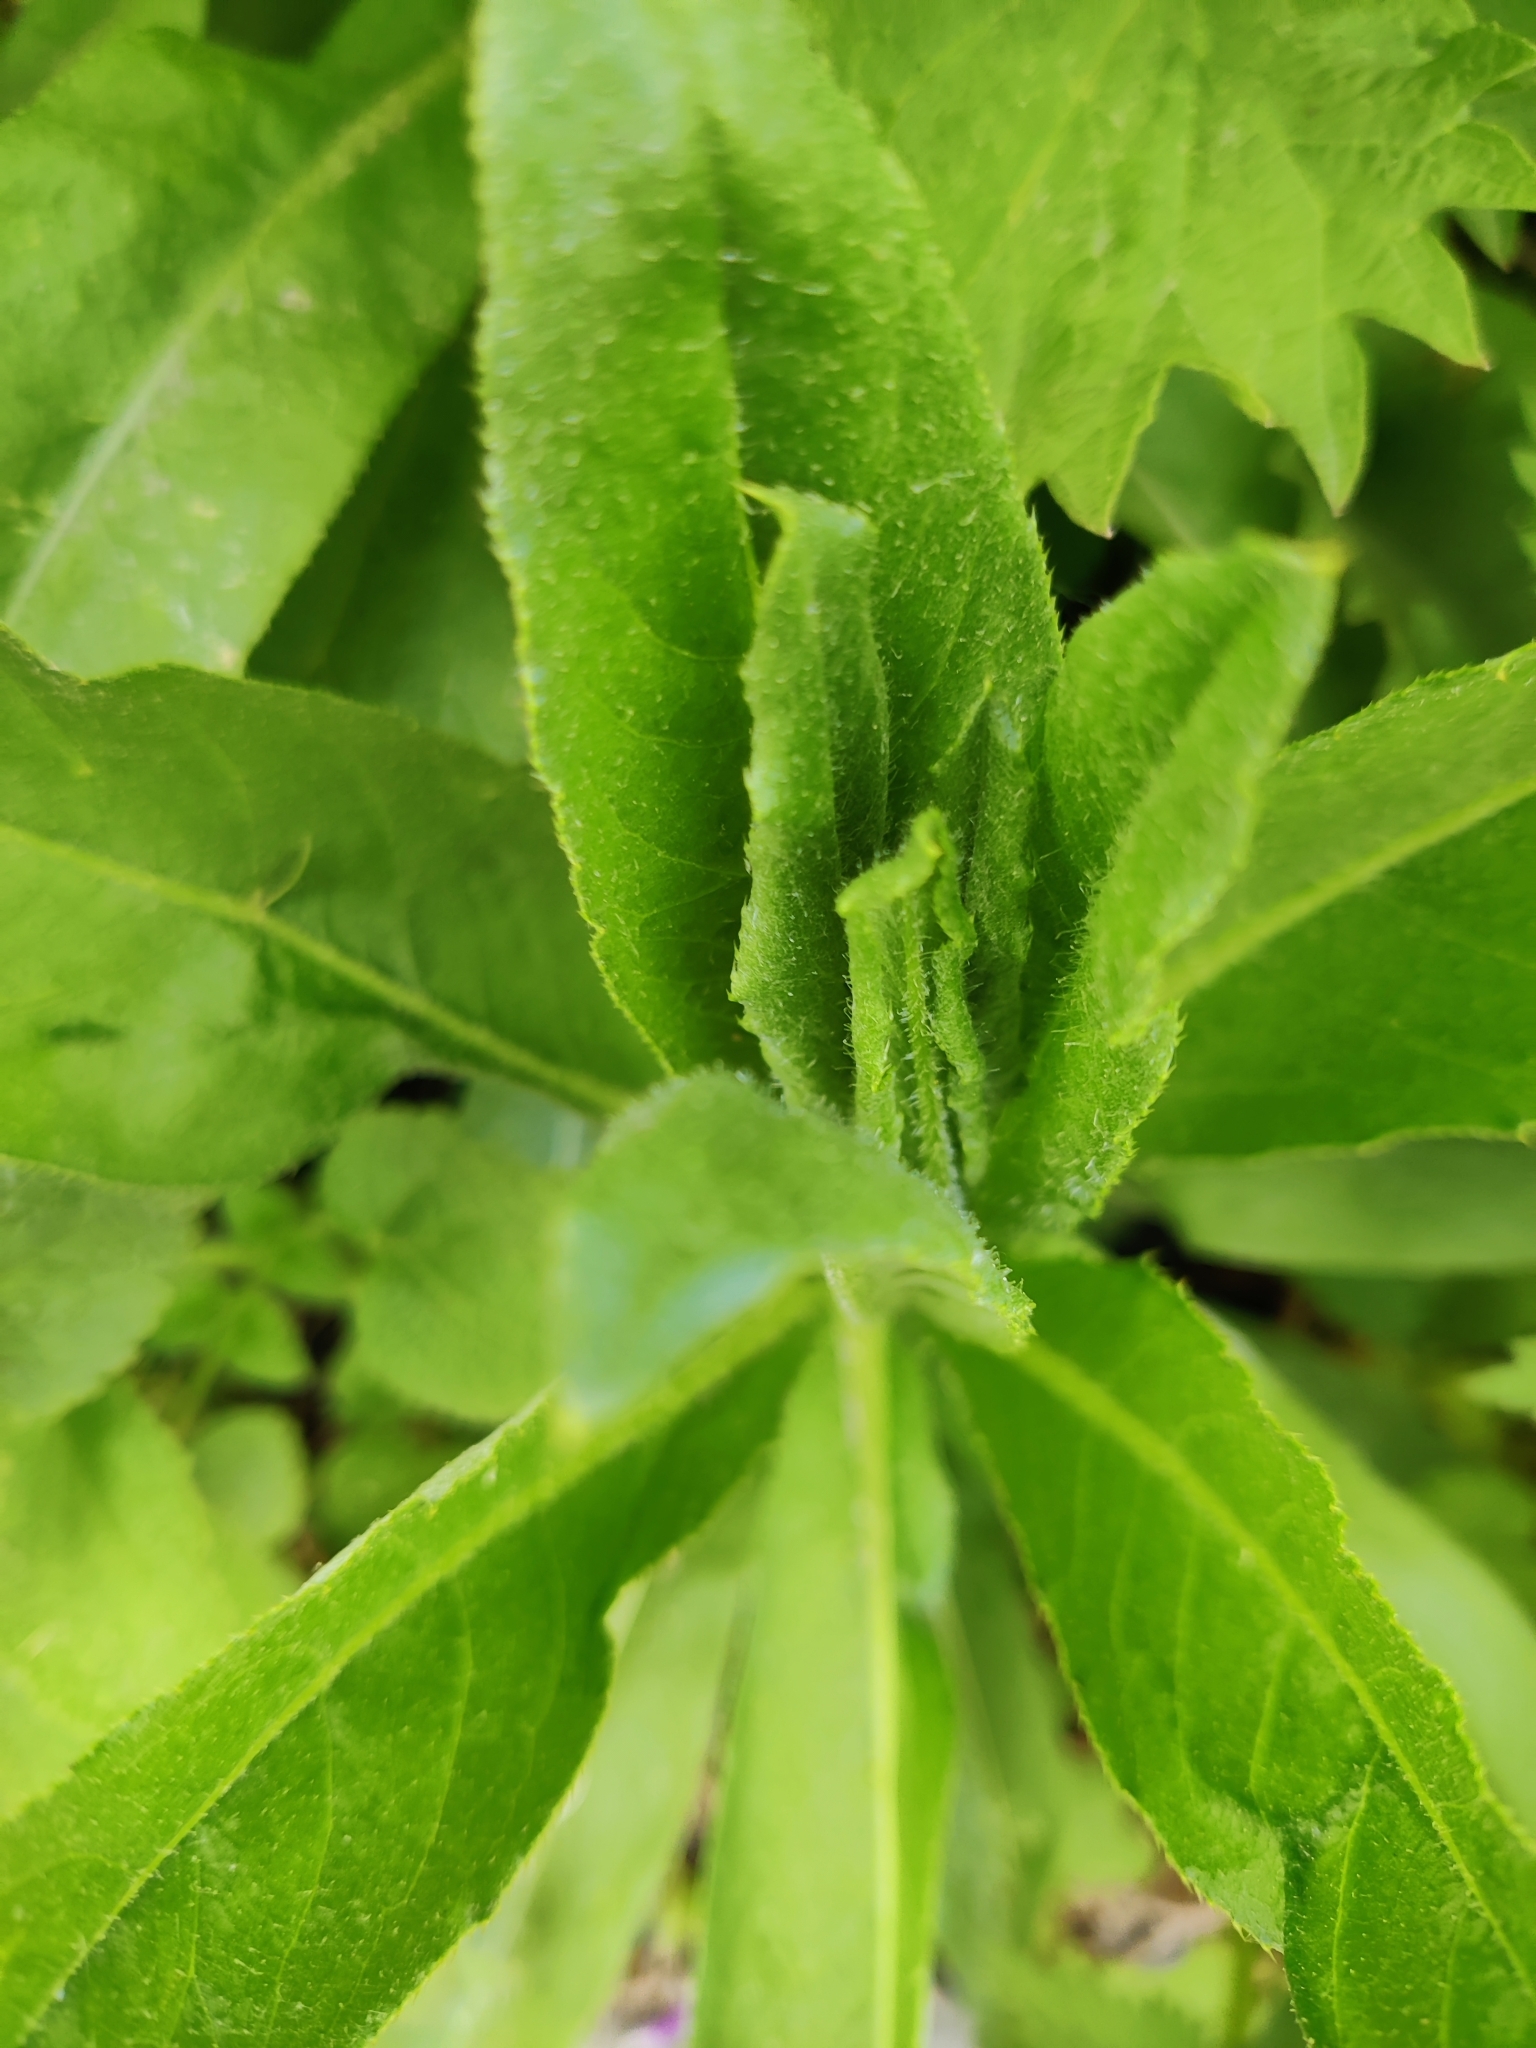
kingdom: Plantae
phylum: Tracheophyta
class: Magnoliopsida
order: Asterales
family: Asteraceae
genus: Cirsium
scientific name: Cirsium arvense
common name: Creeping thistle
